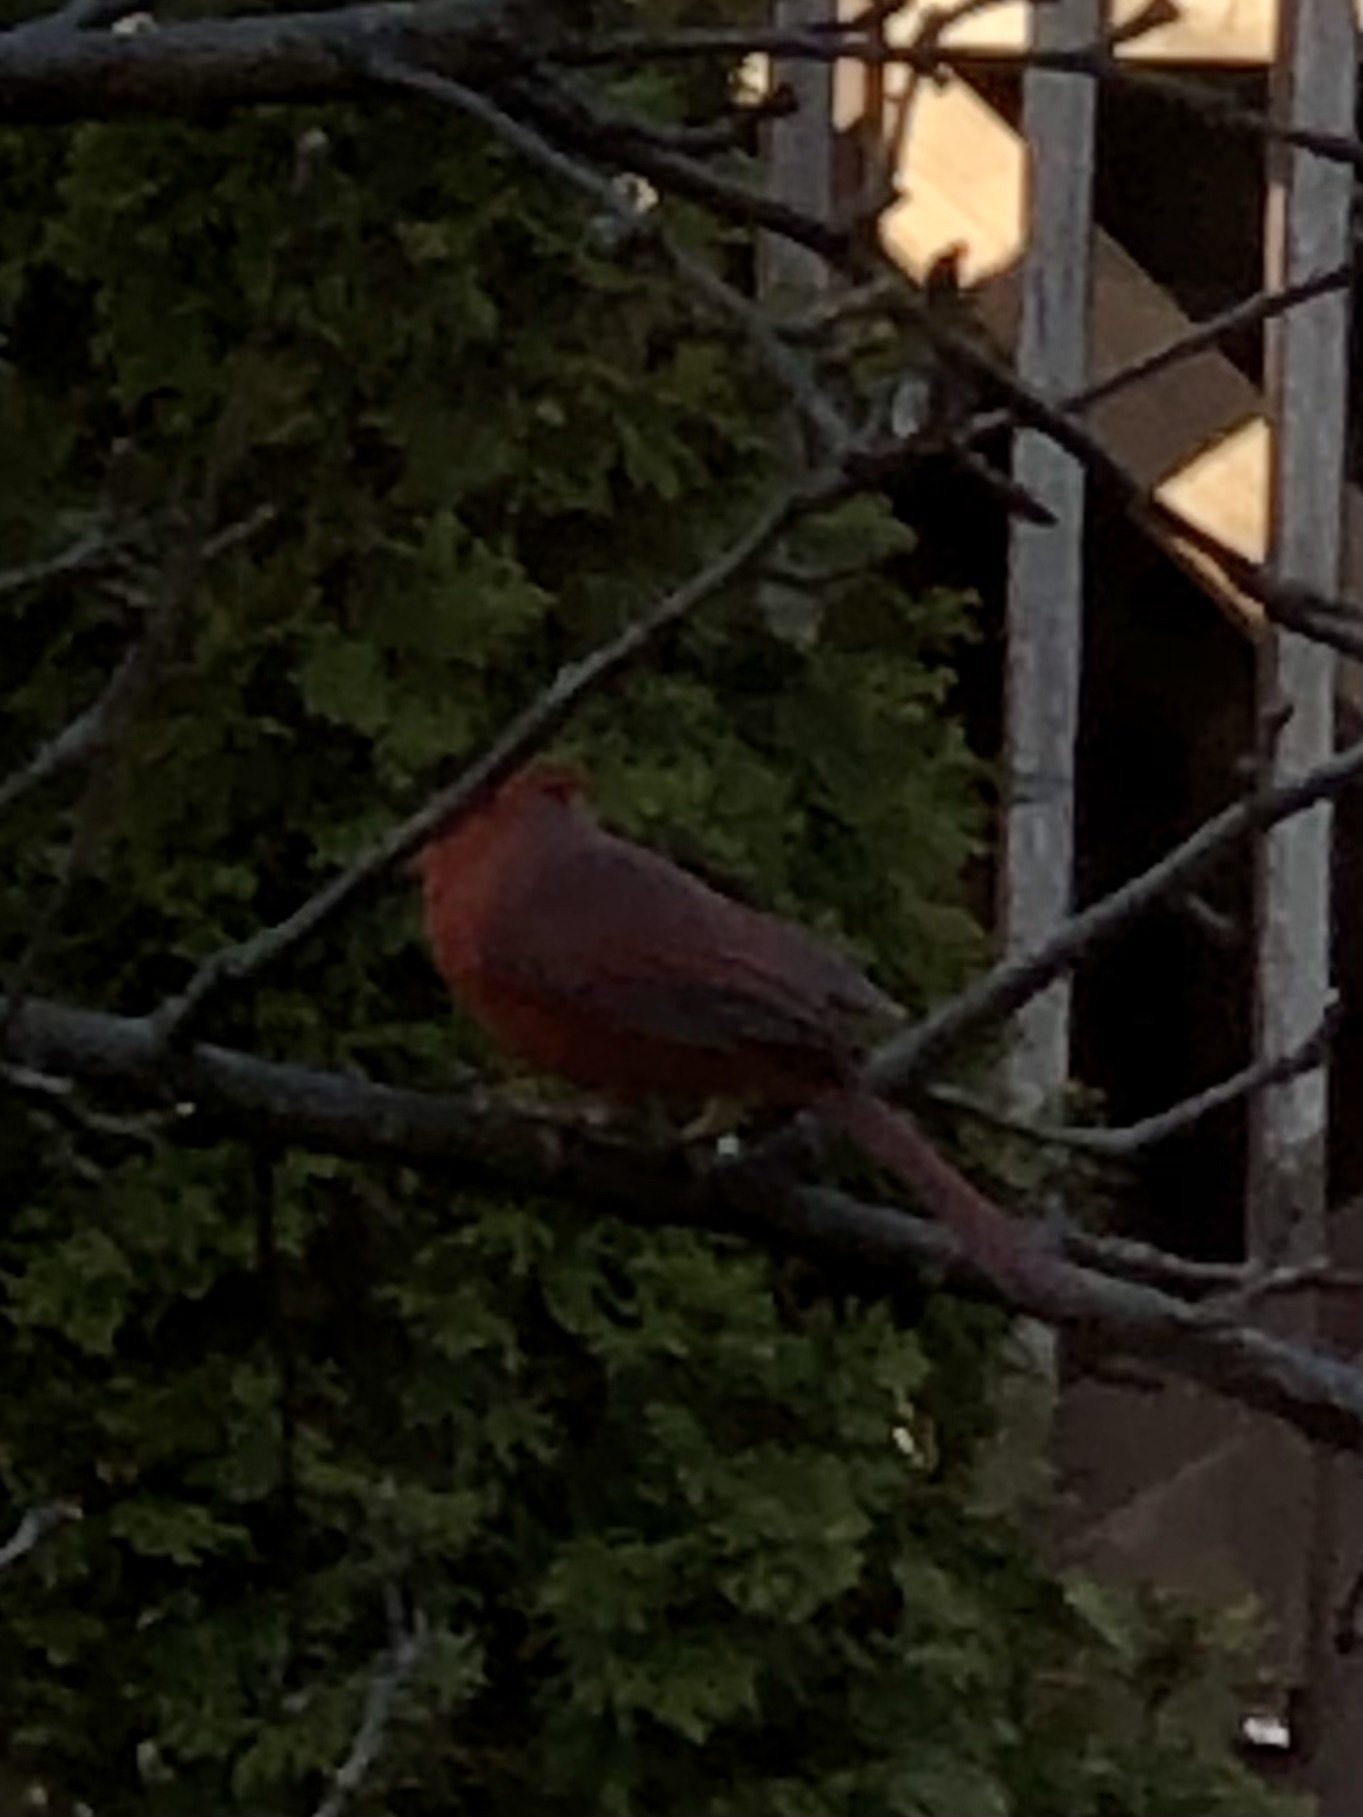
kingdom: Animalia
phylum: Chordata
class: Aves
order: Passeriformes
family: Cardinalidae
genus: Cardinalis
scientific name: Cardinalis cardinalis
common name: Northern cardinal
